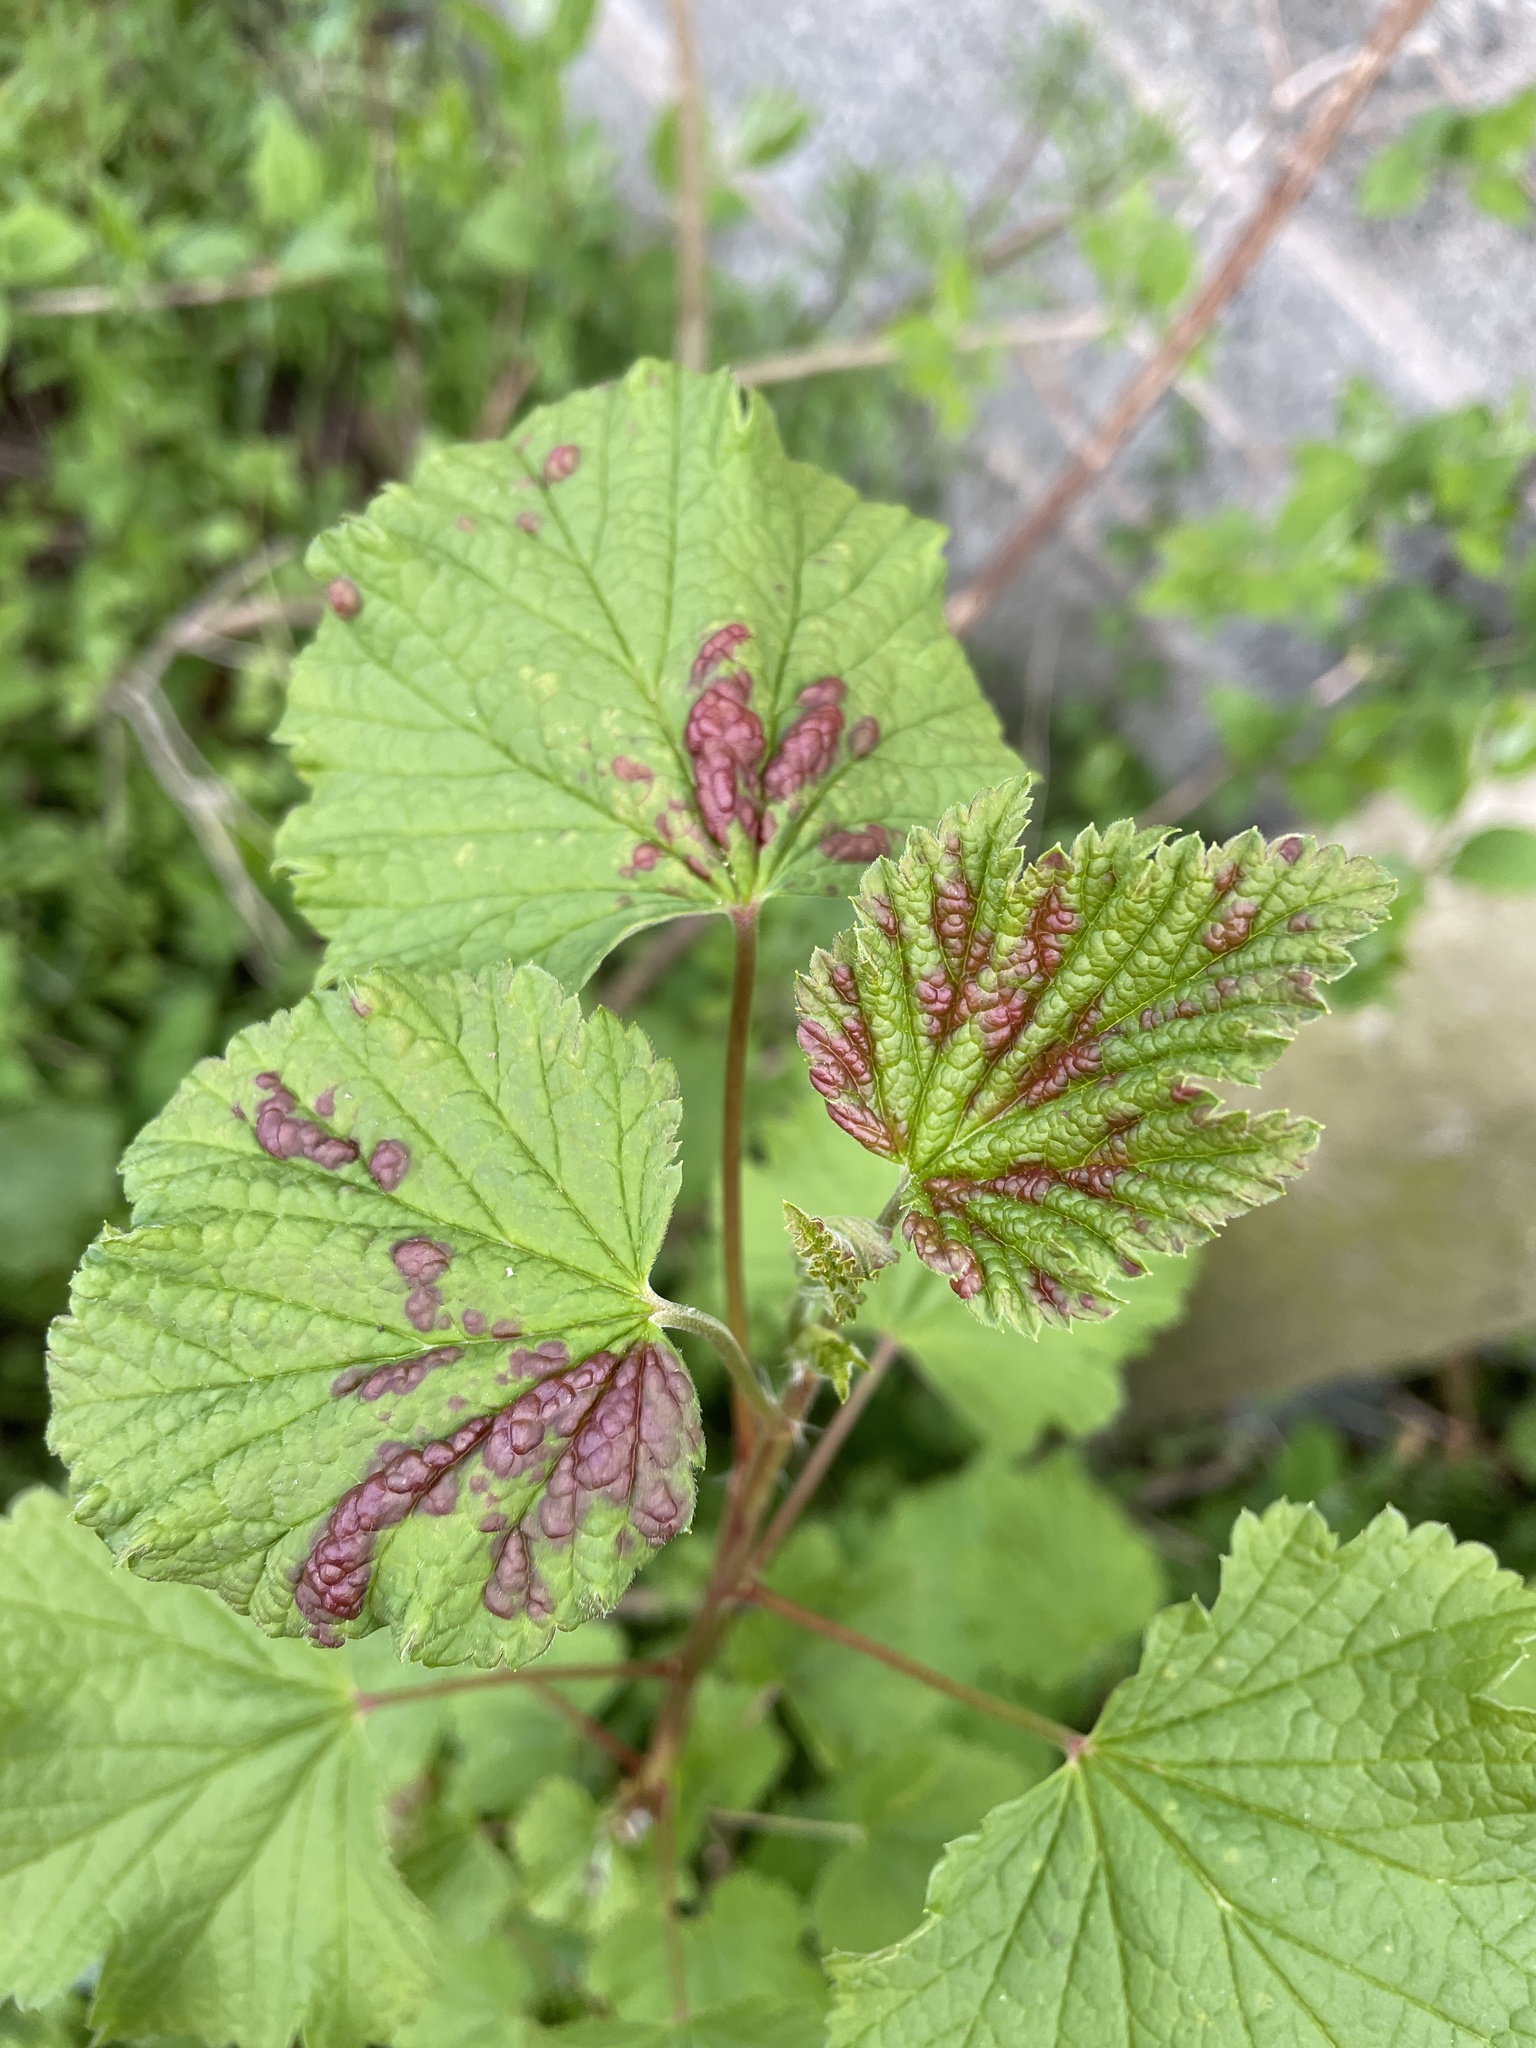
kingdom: Animalia
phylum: Arthropoda
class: Insecta
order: Hemiptera
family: Aphididae
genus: Cryptomyzus
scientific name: Cryptomyzus ribis
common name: Currant aphid
